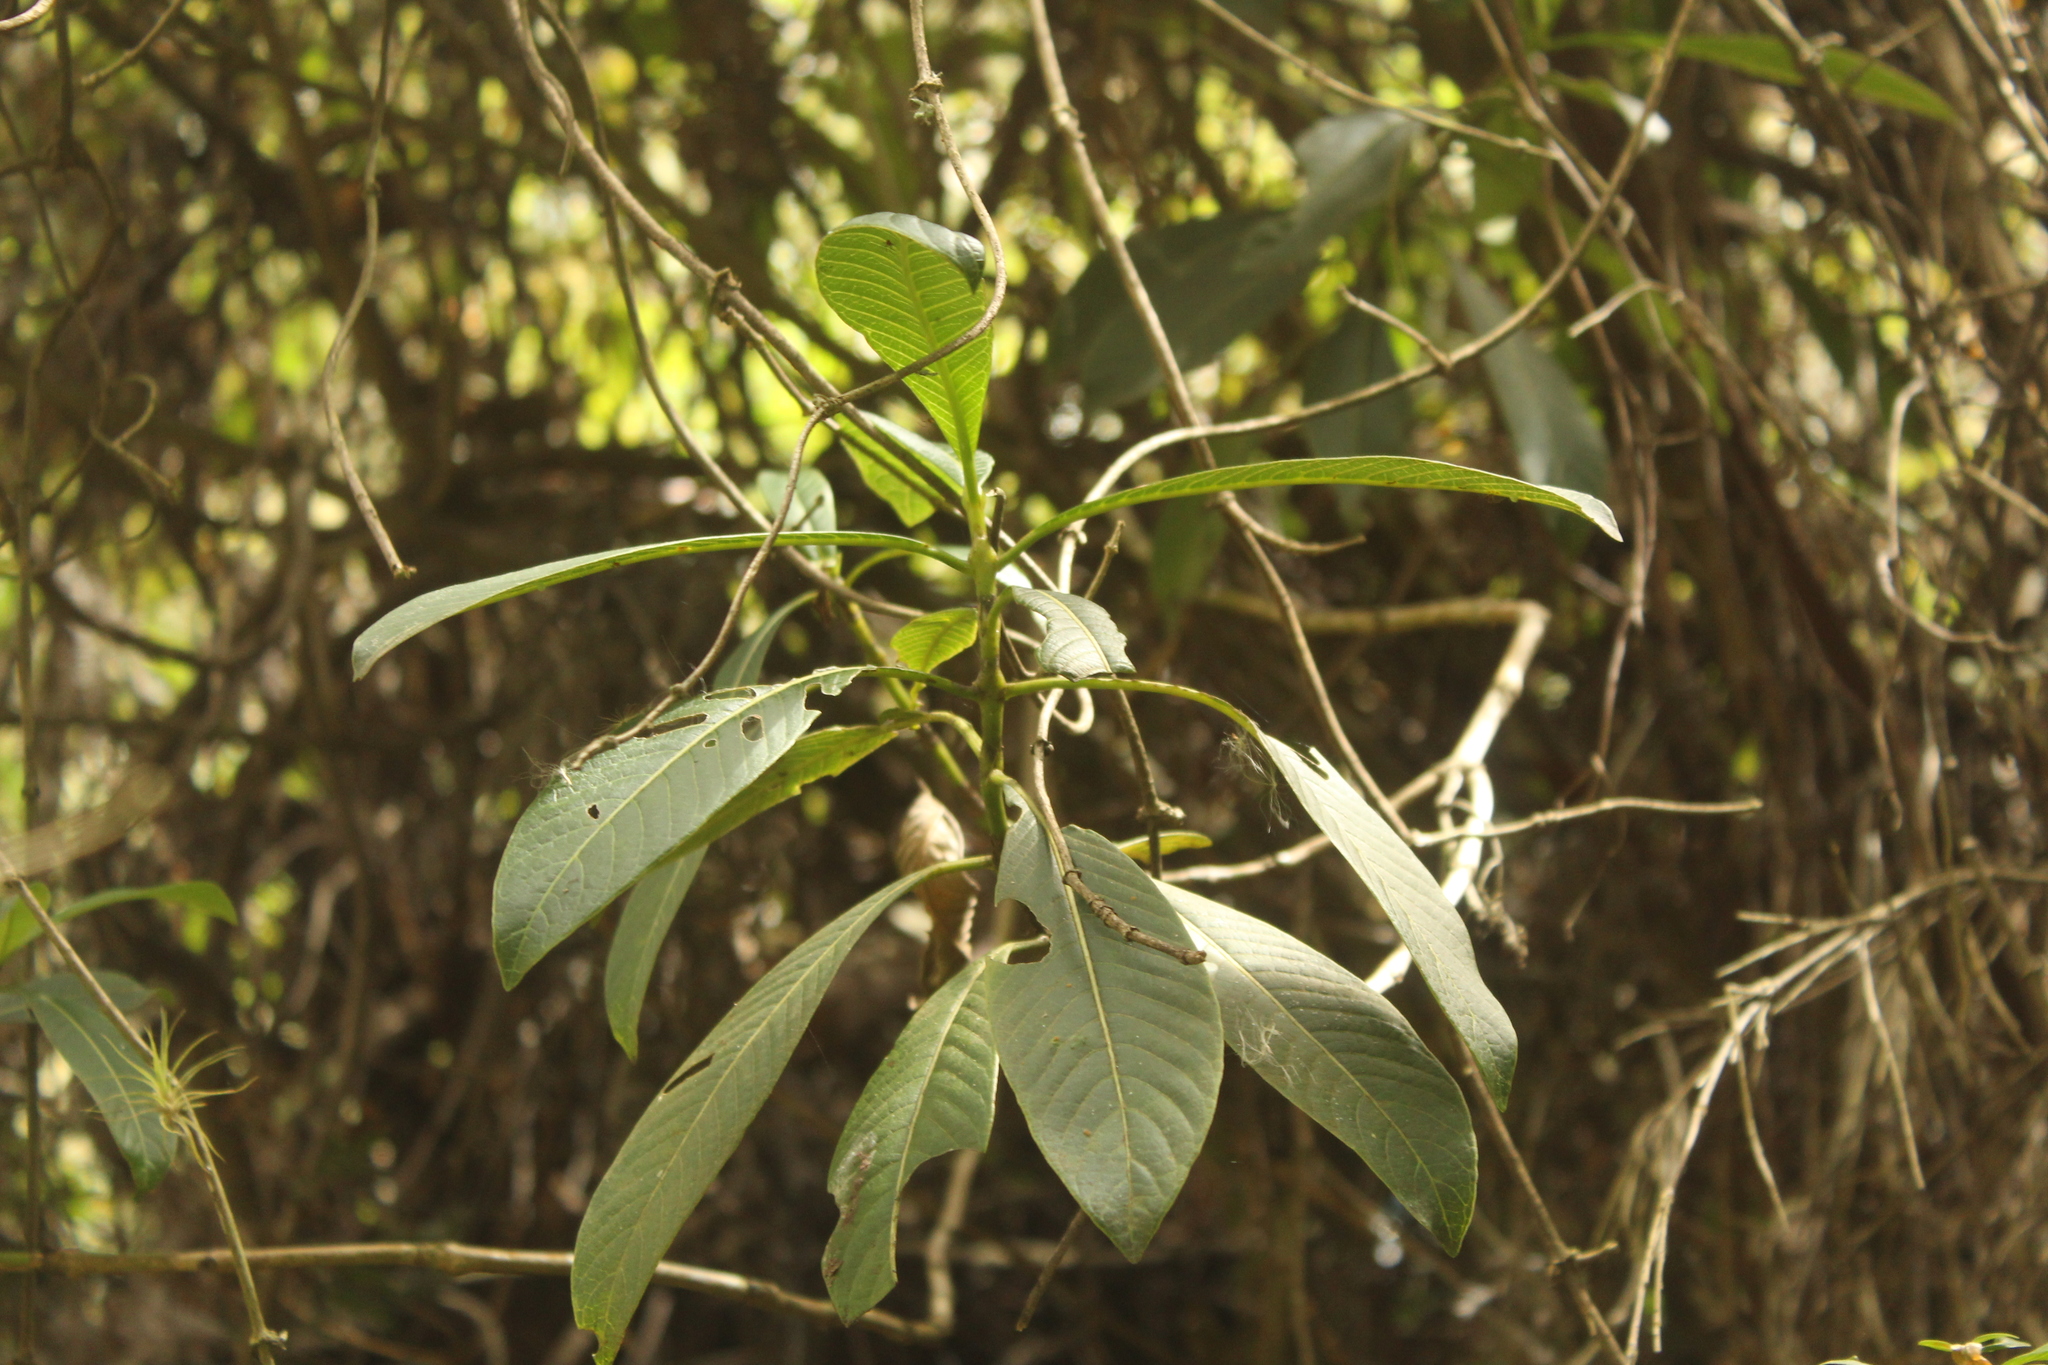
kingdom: Plantae
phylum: Tracheophyta
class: Magnoliopsida
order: Gentianales
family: Rubiaceae
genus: Palicourea
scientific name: Palicourea
